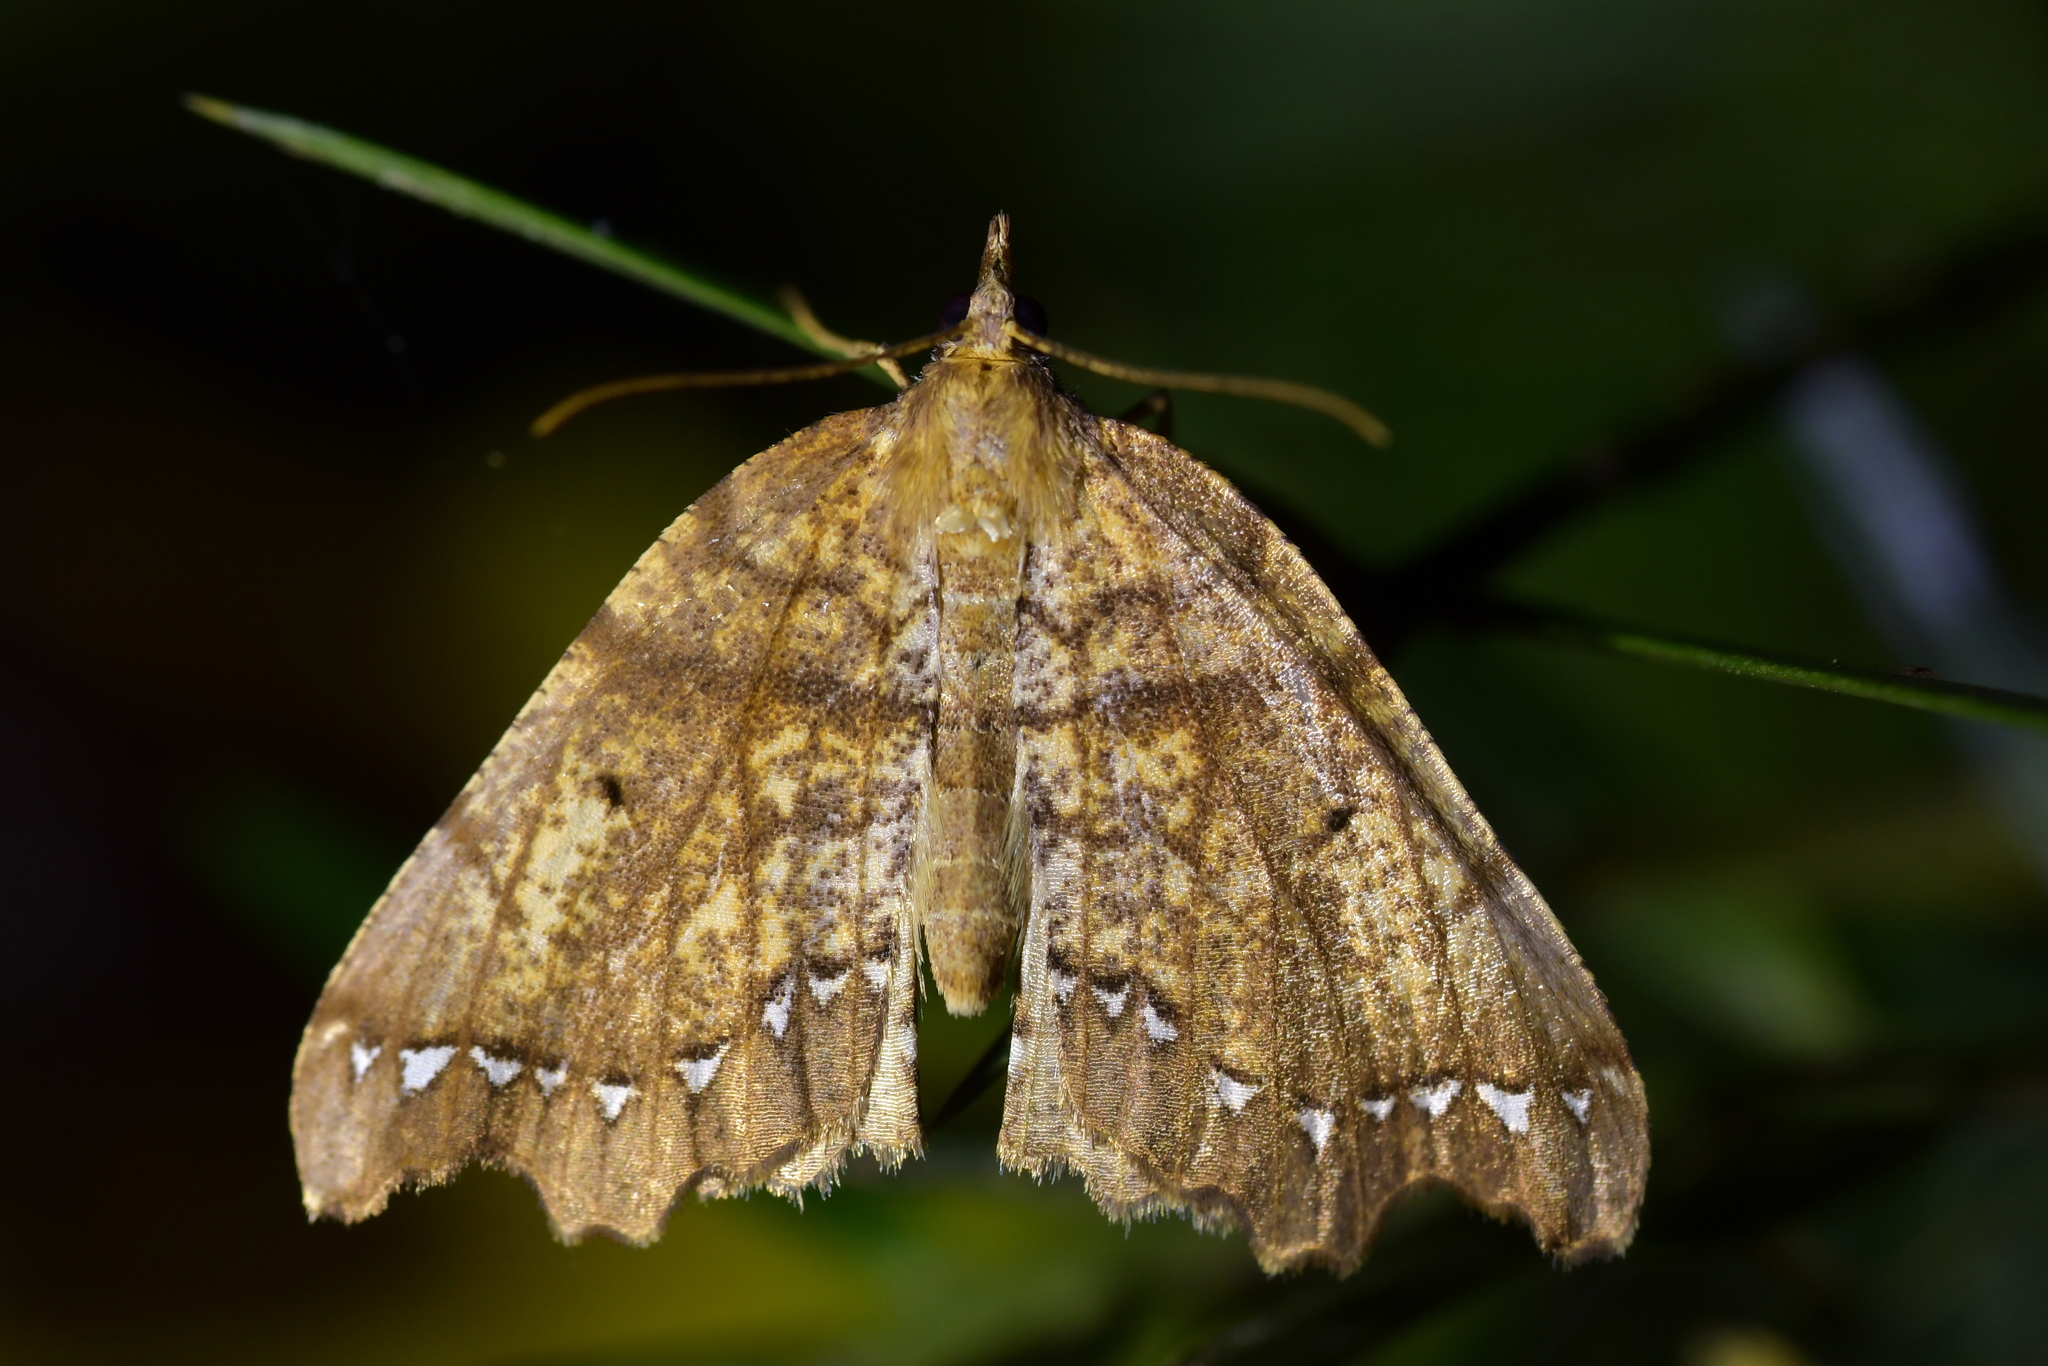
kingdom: Animalia
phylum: Arthropoda
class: Insecta
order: Lepidoptera
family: Geometridae
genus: Chalastra
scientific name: Chalastra pellurgata
